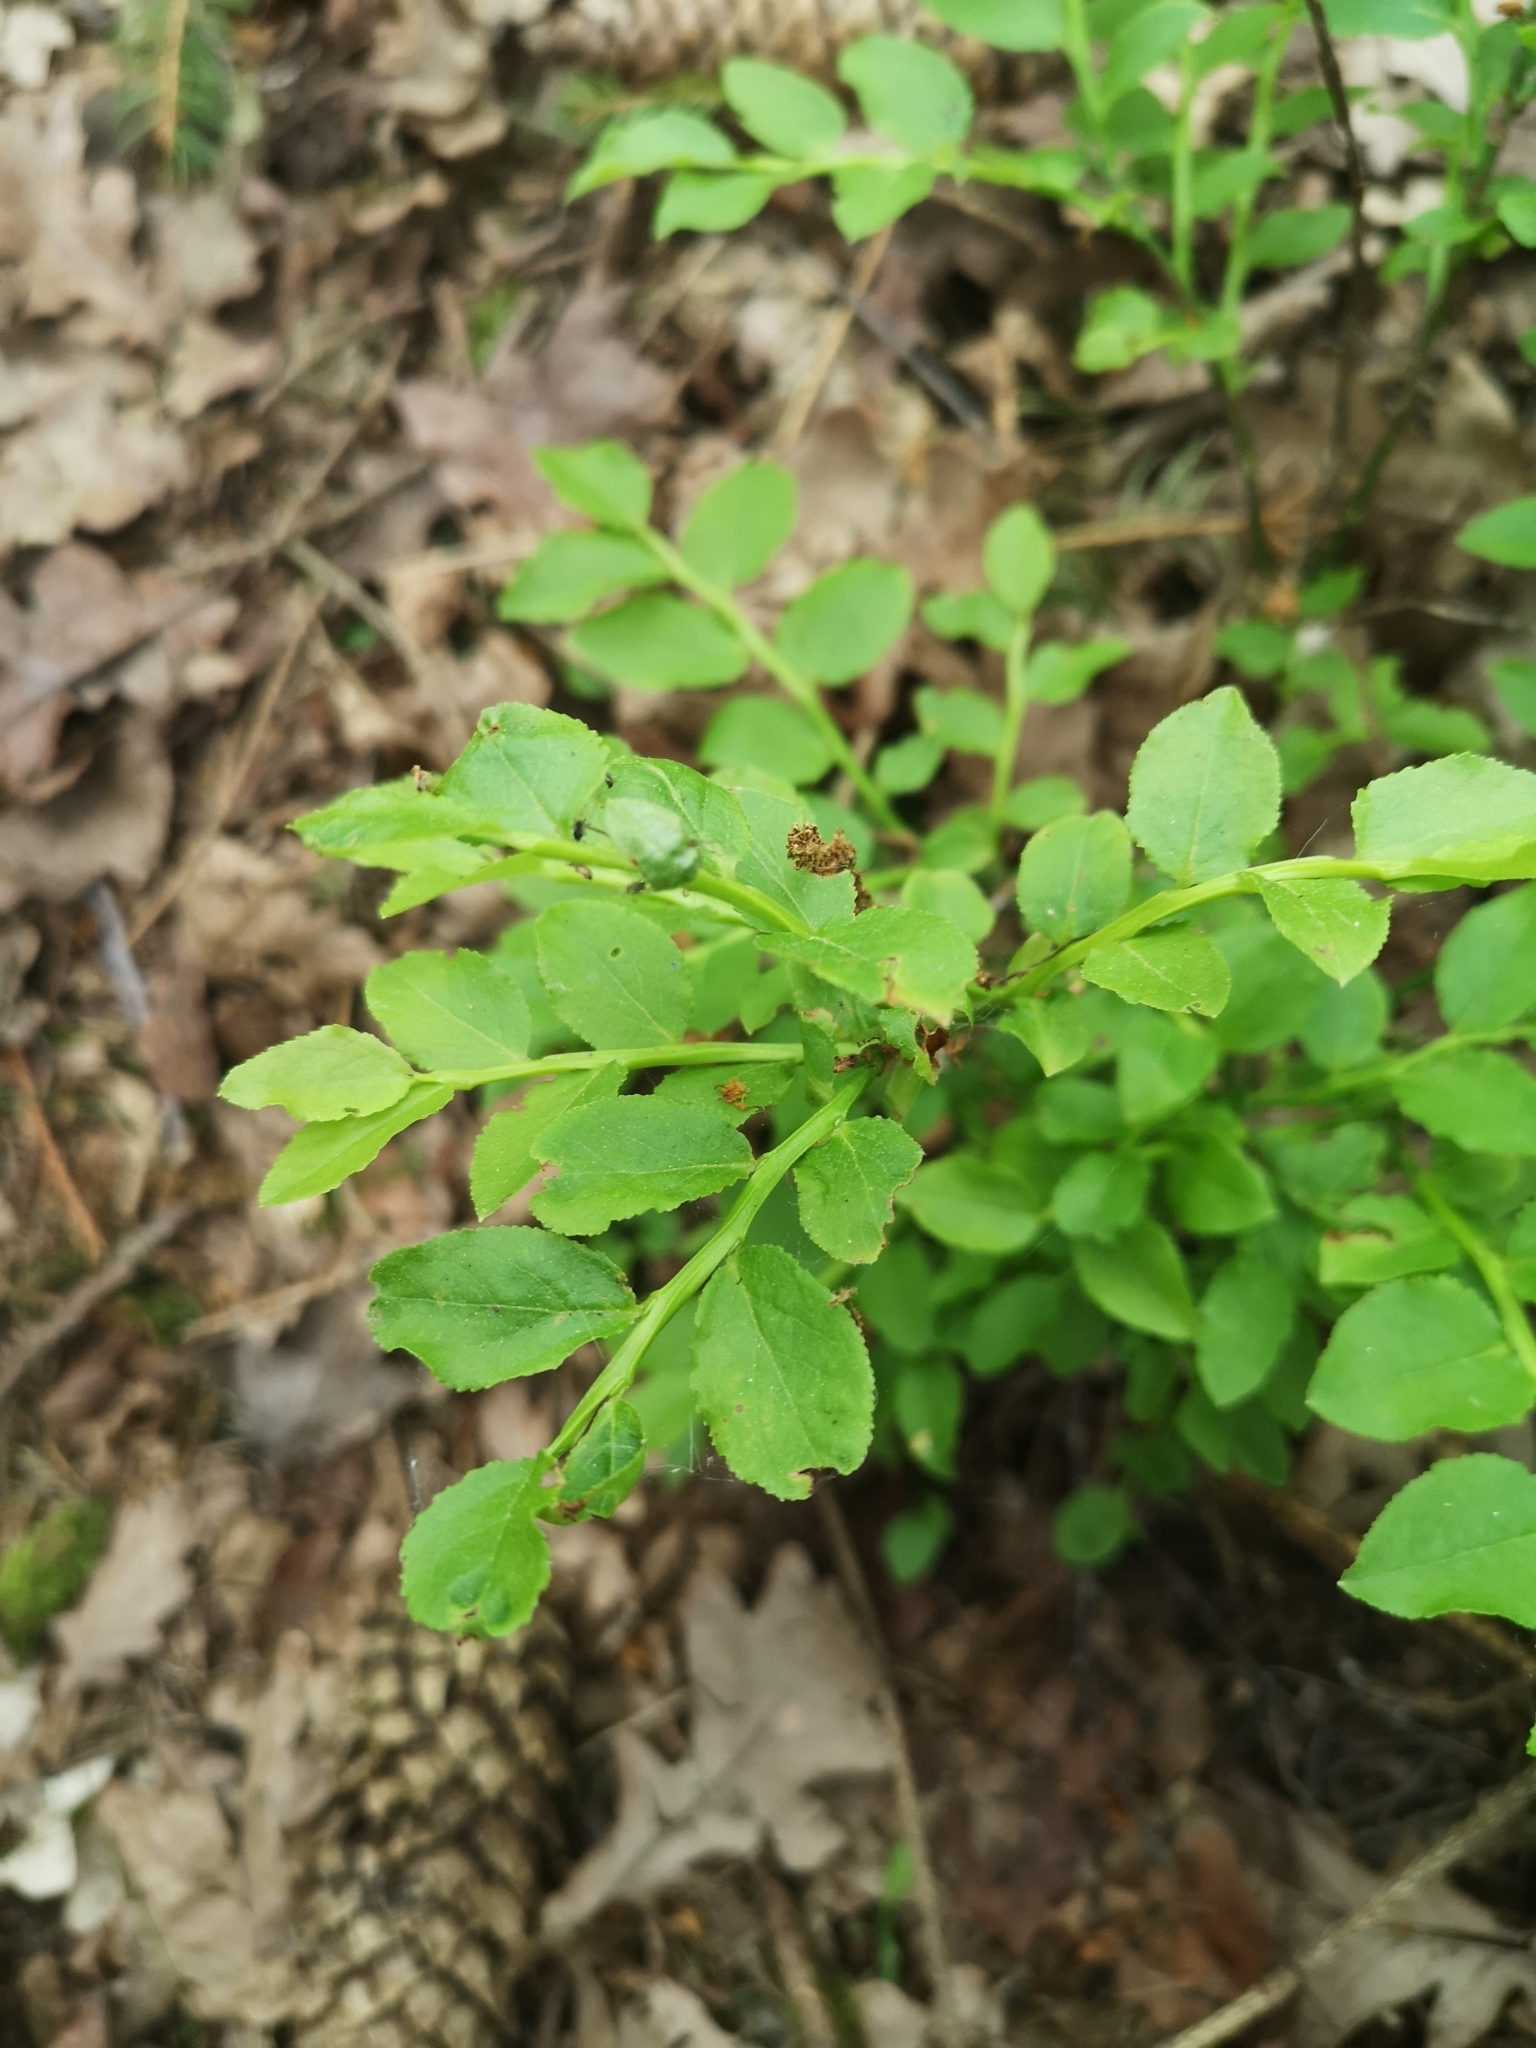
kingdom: Plantae
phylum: Tracheophyta
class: Magnoliopsida
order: Ericales
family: Ericaceae
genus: Vaccinium
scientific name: Vaccinium myrtillus
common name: Bilberry
